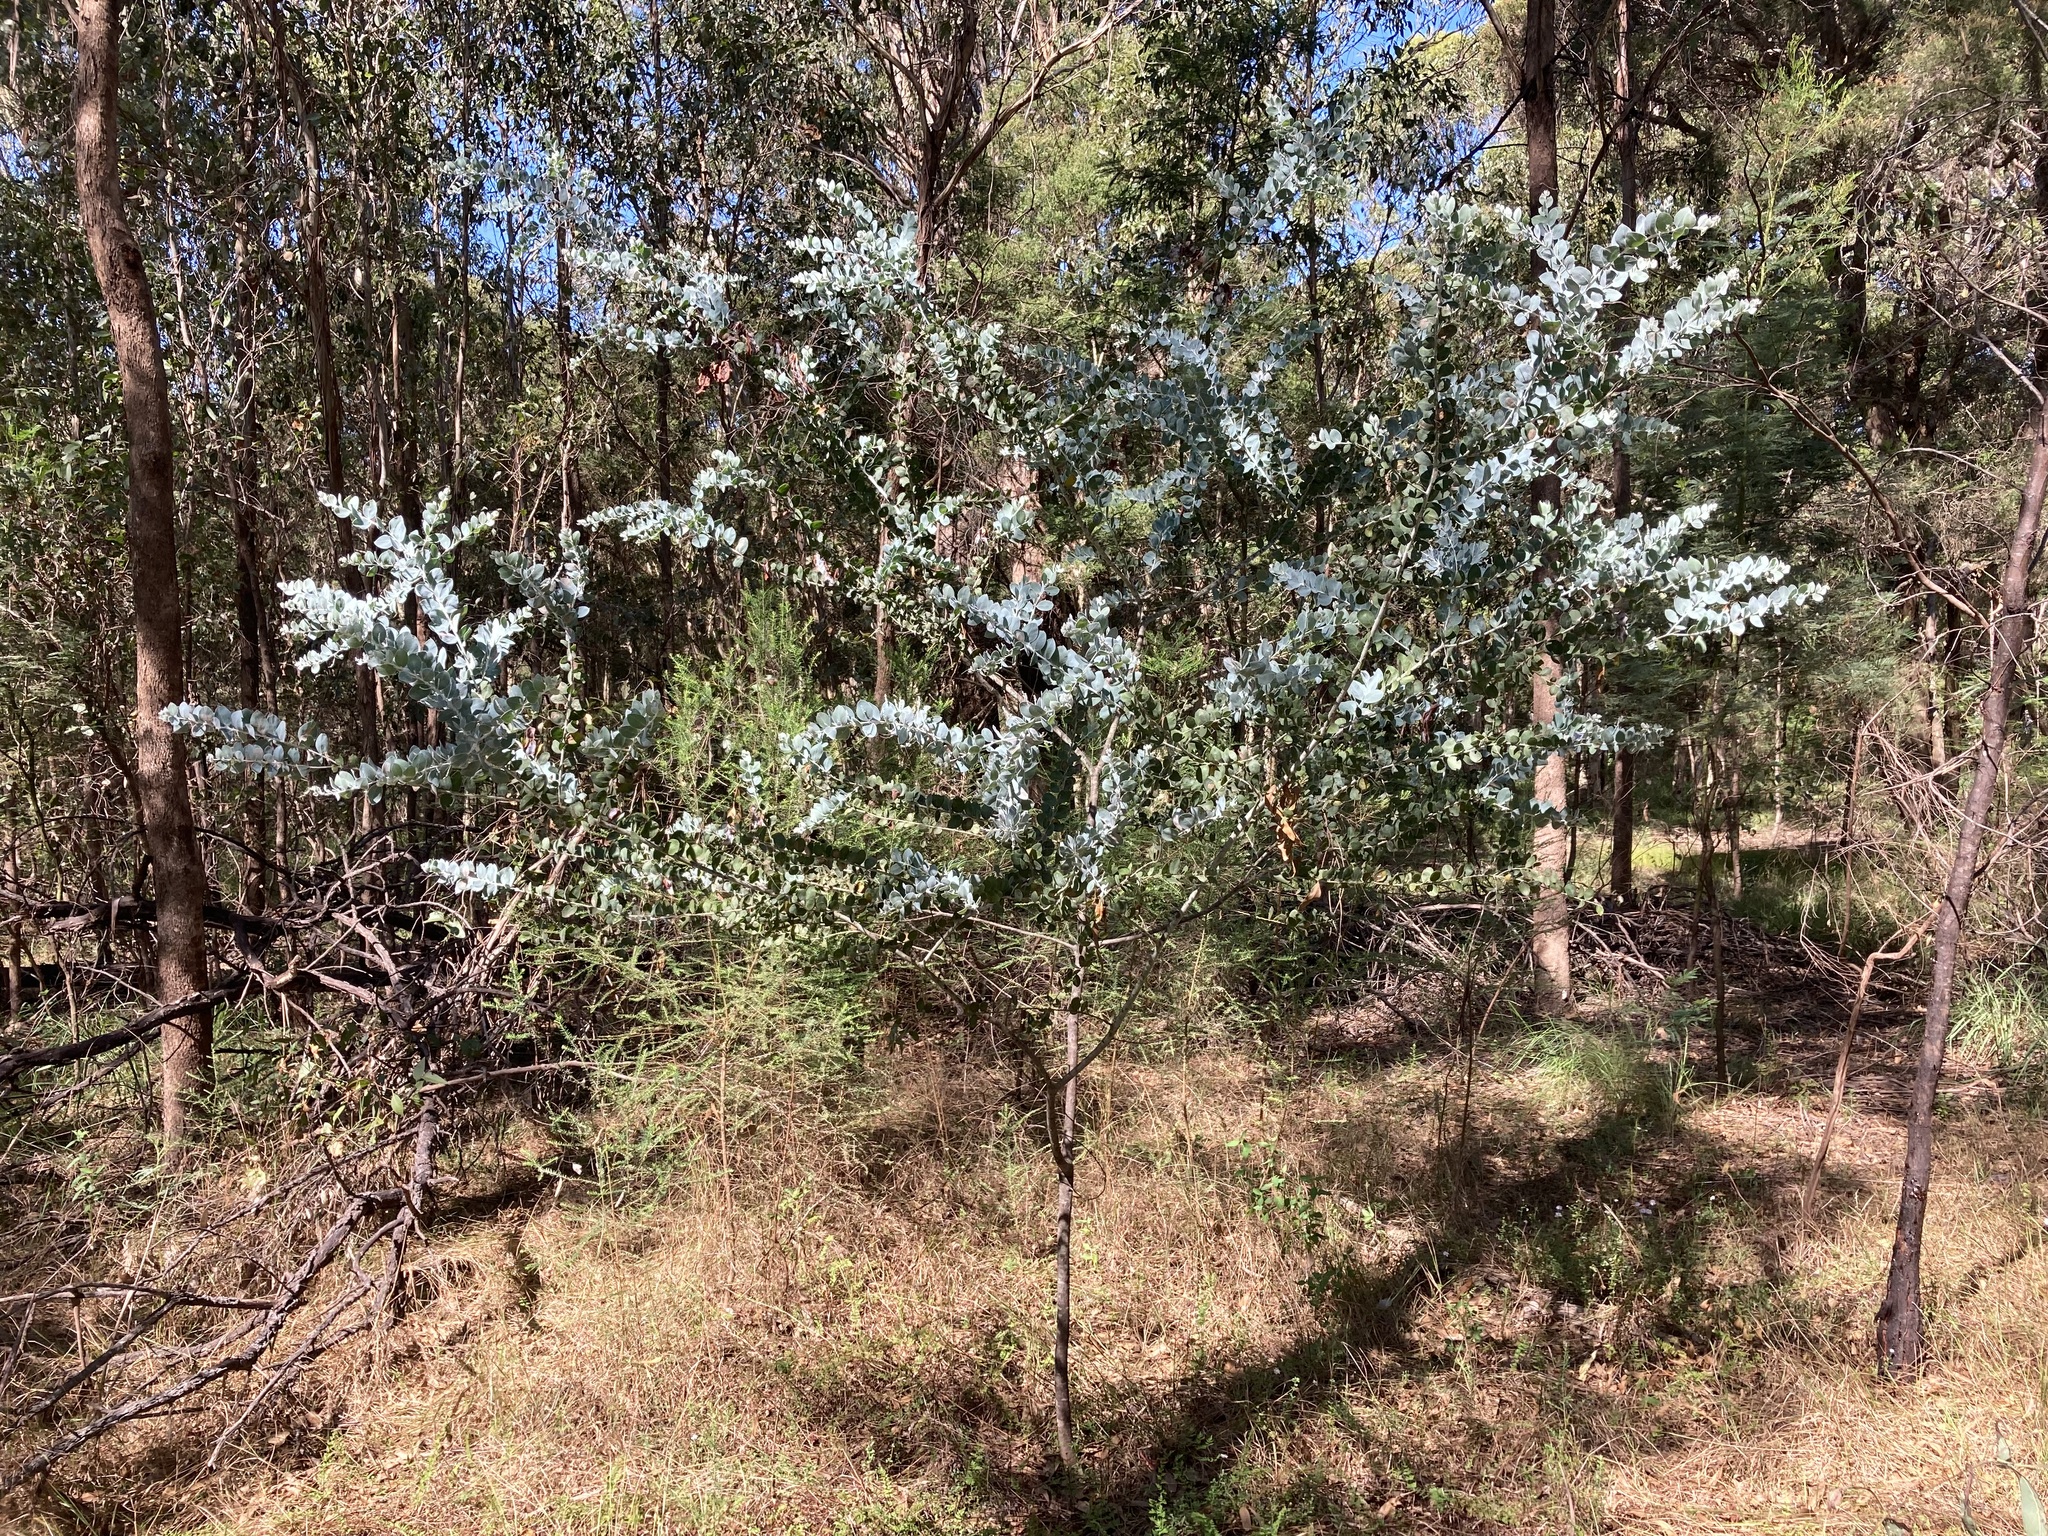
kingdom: Plantae
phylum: Tracheophyta
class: Magnoliopsida
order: Fabales
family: Fabaceae
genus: Acacia
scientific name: Acacia podalyriifolia
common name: Pearl wattle
